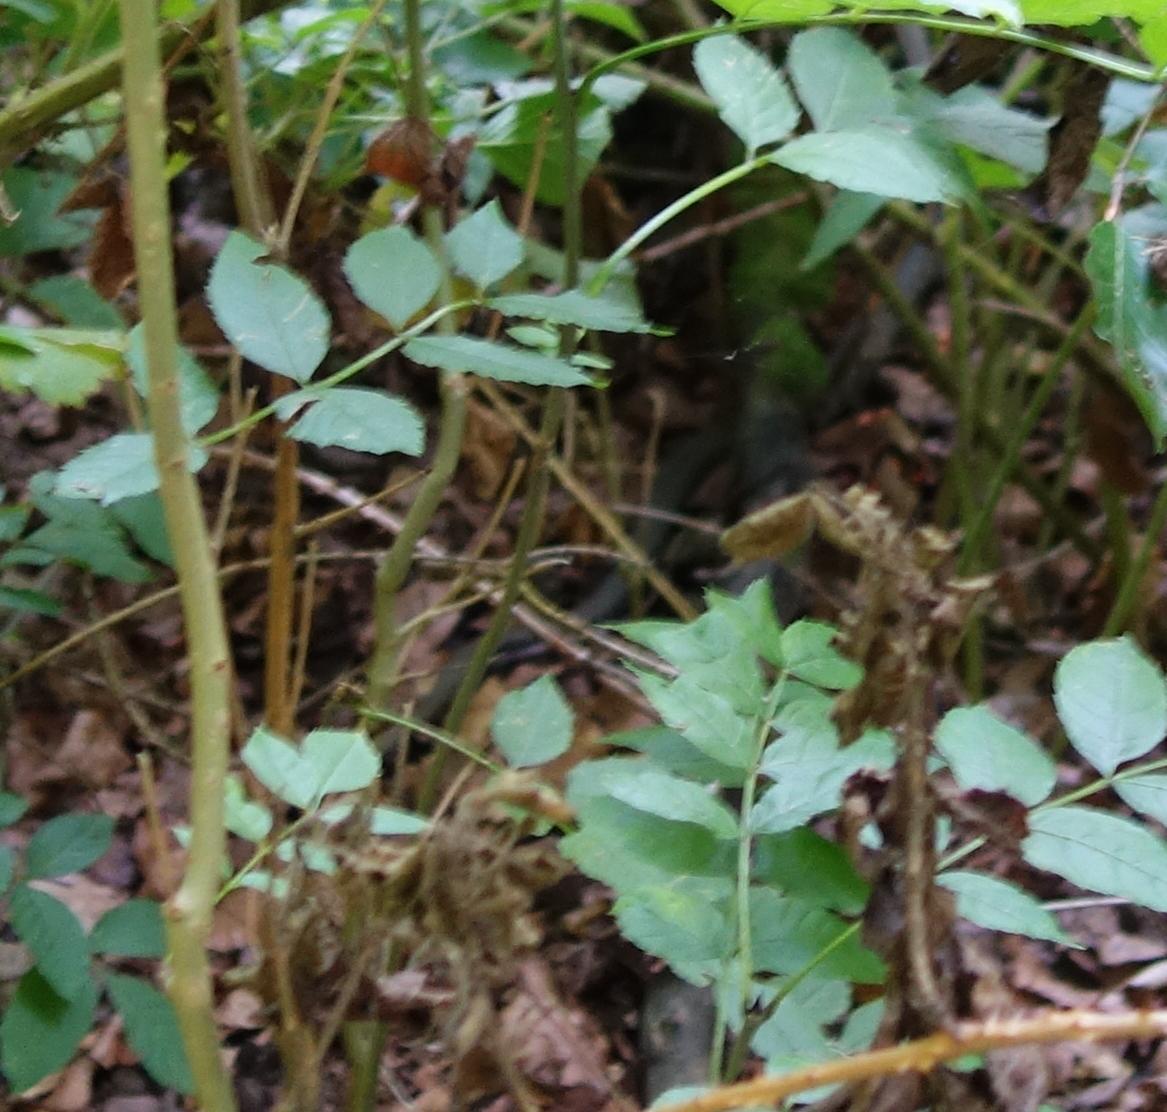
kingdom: Animalia
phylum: Chordata
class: Squamata
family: Colubridae
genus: Natrix
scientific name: Natrix
